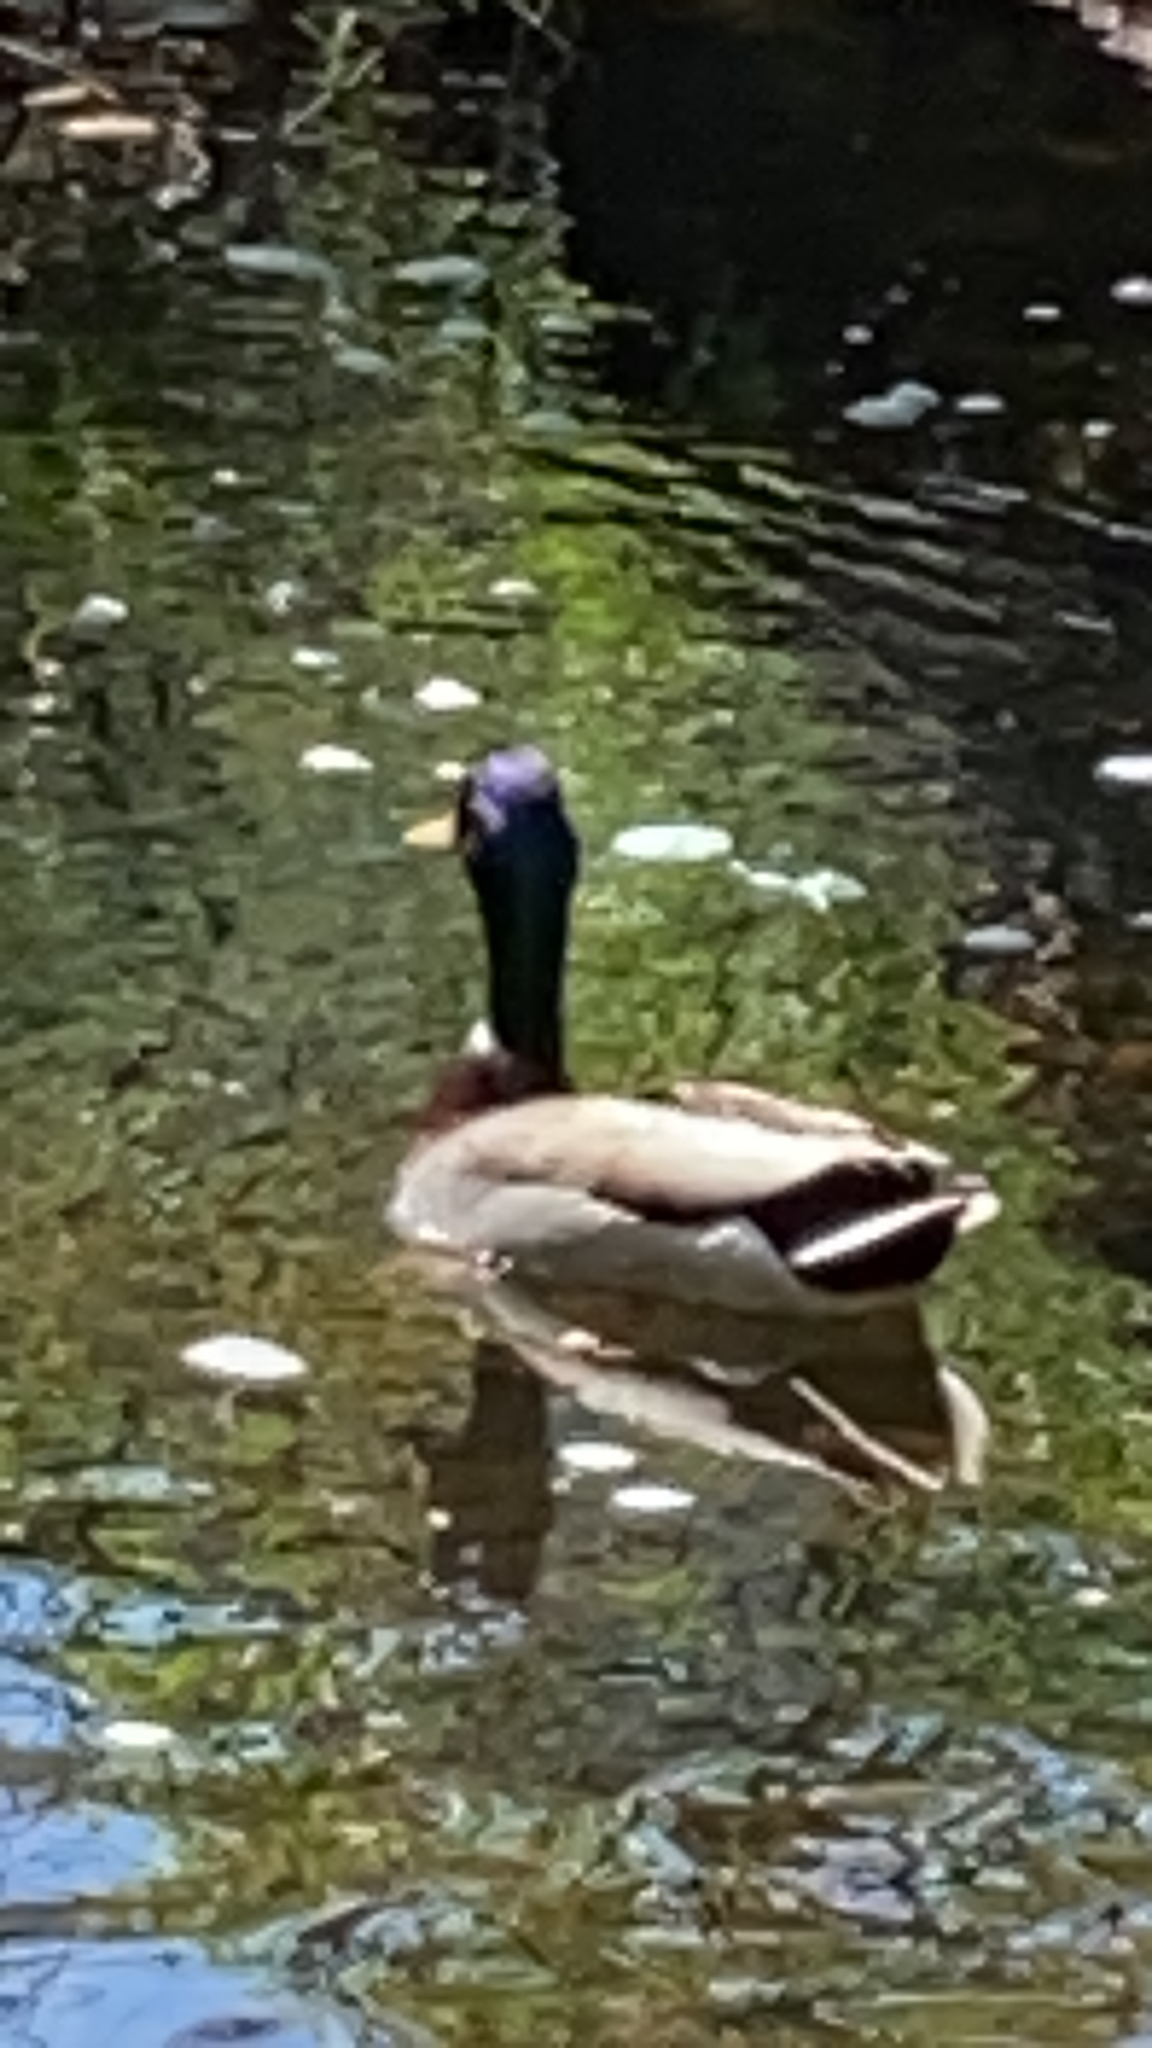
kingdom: Animalia
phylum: Chordata
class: Aves
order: Anseriformes
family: Anatidae
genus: Anas
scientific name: Anas platyrhynchos
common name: Mallard
